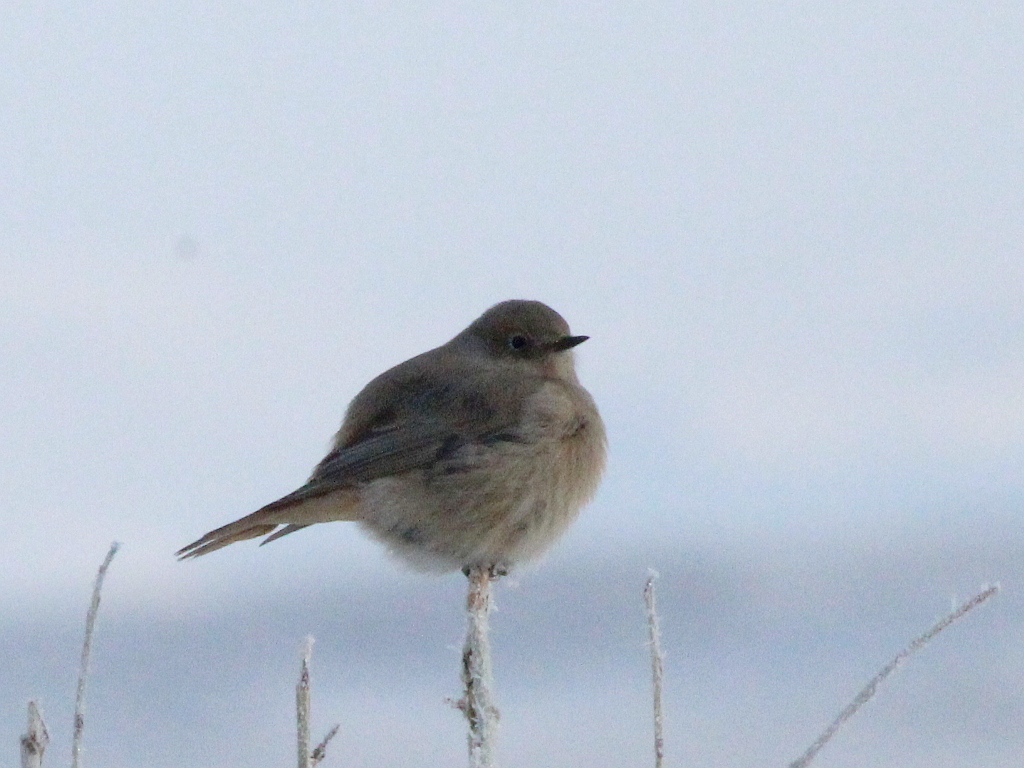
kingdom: Animalia
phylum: Chordata
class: Aves
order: Passeriformes
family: Muscicapidae
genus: Phoenicurus
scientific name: Phoenicurus erythrogastrus
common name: Güldenstädt's redstart
